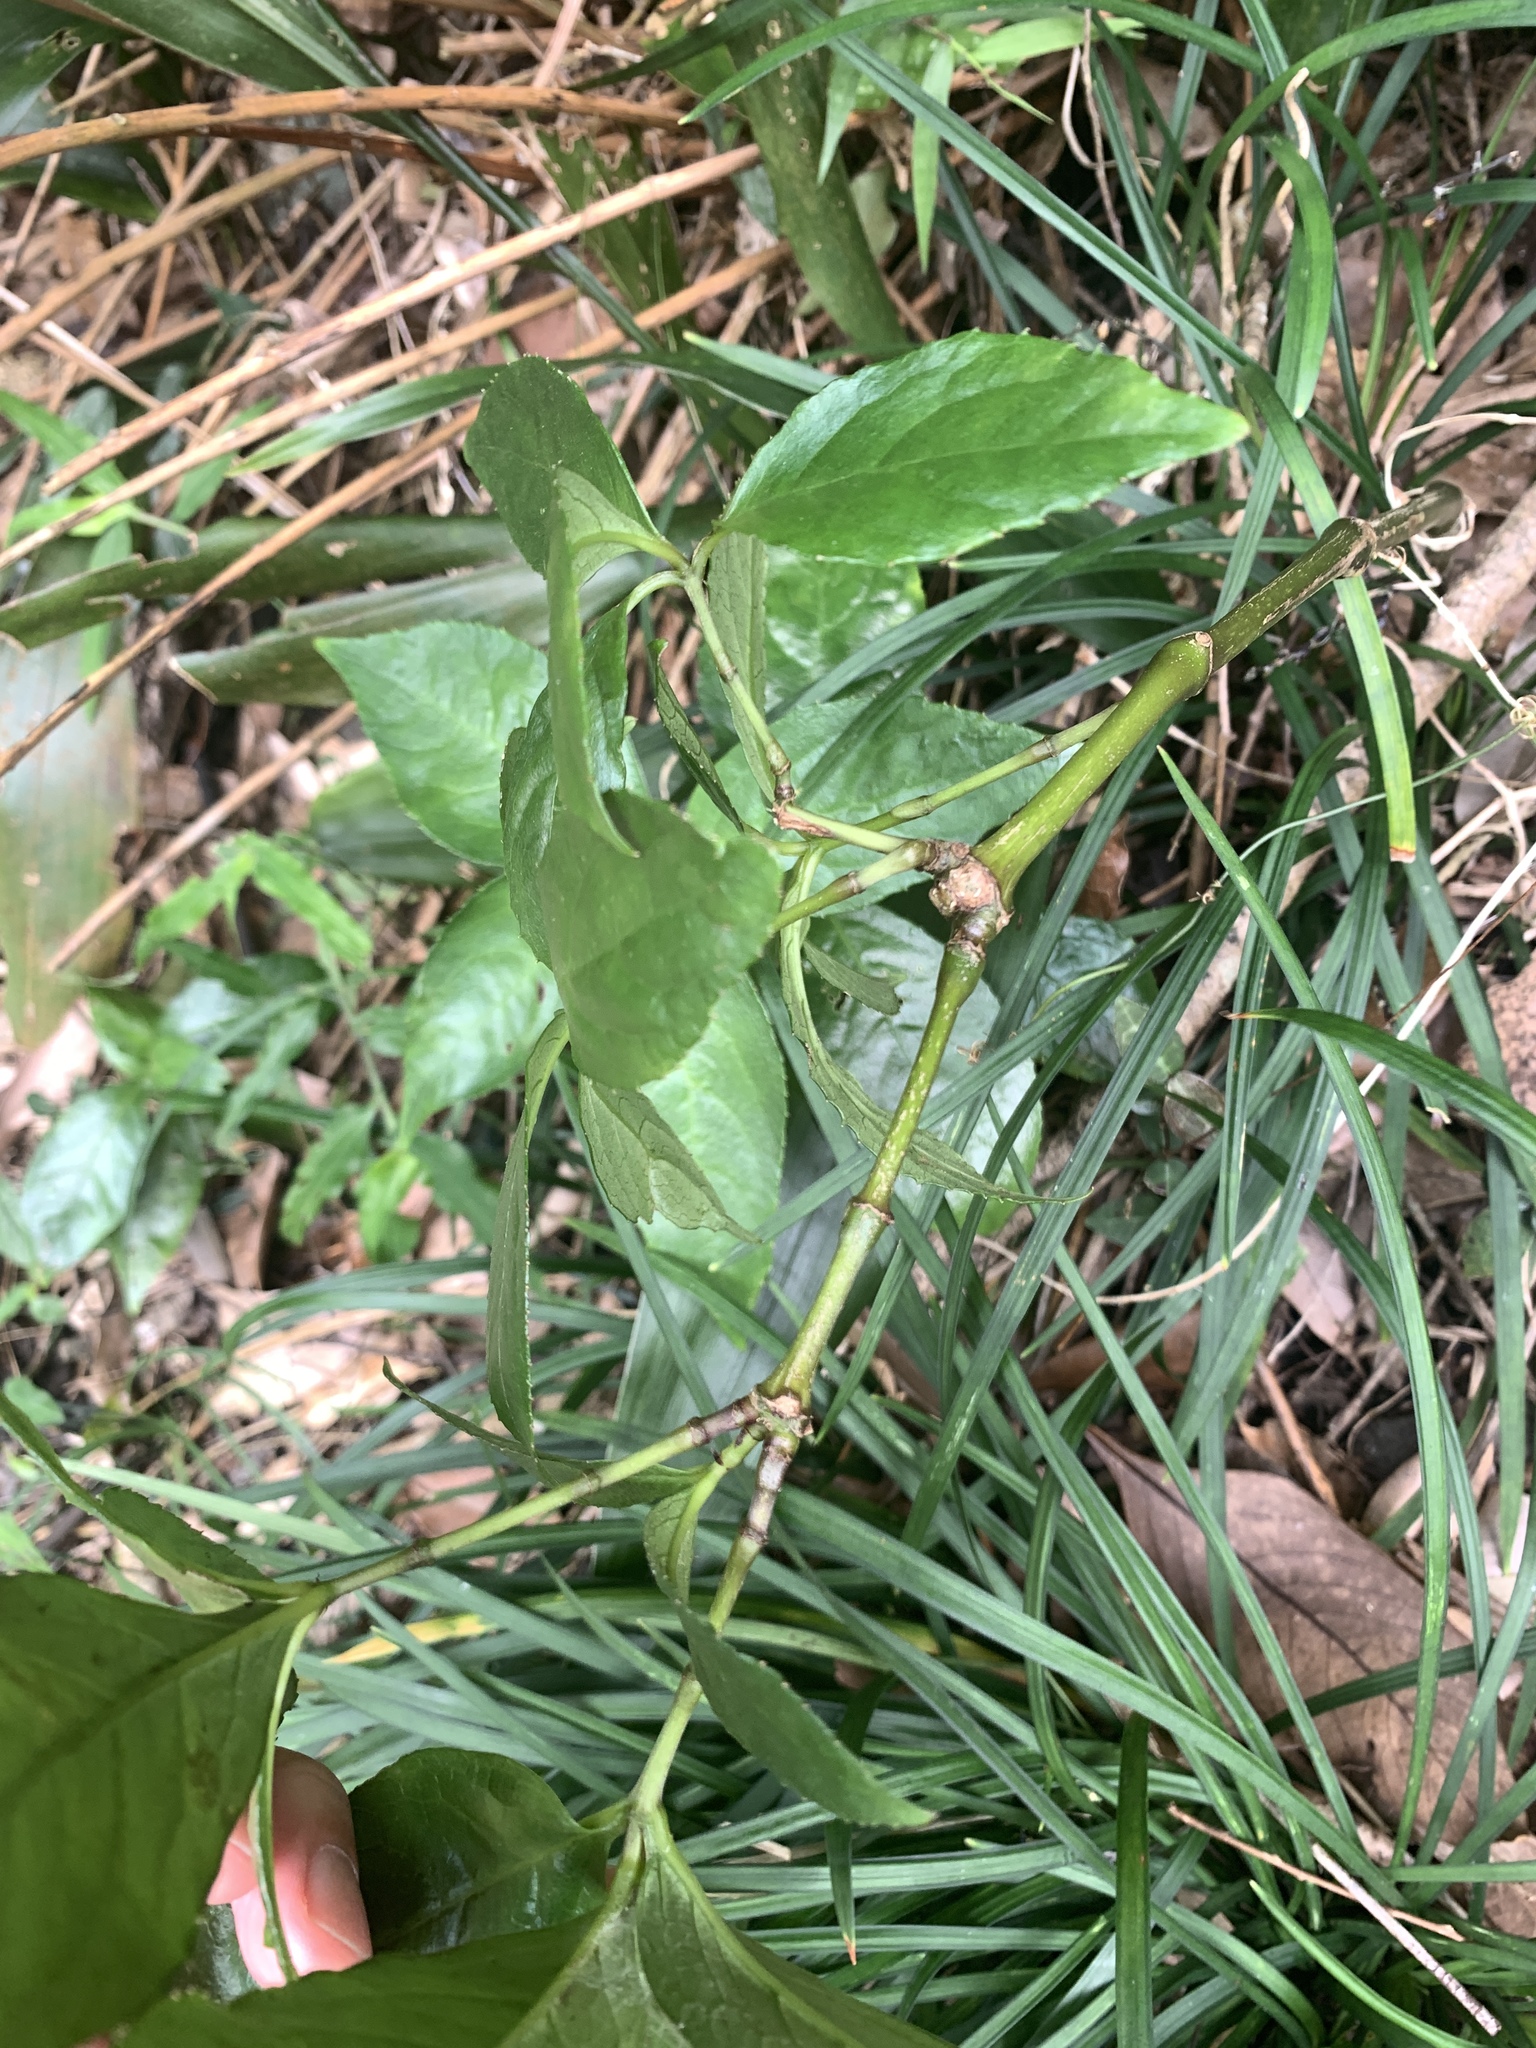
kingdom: Plantae
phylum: Tracheophyta
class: Magnoliopsida
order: Chloranthales
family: Chloranthaceae
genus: Sarcandra
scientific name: Sarcandra glabra
